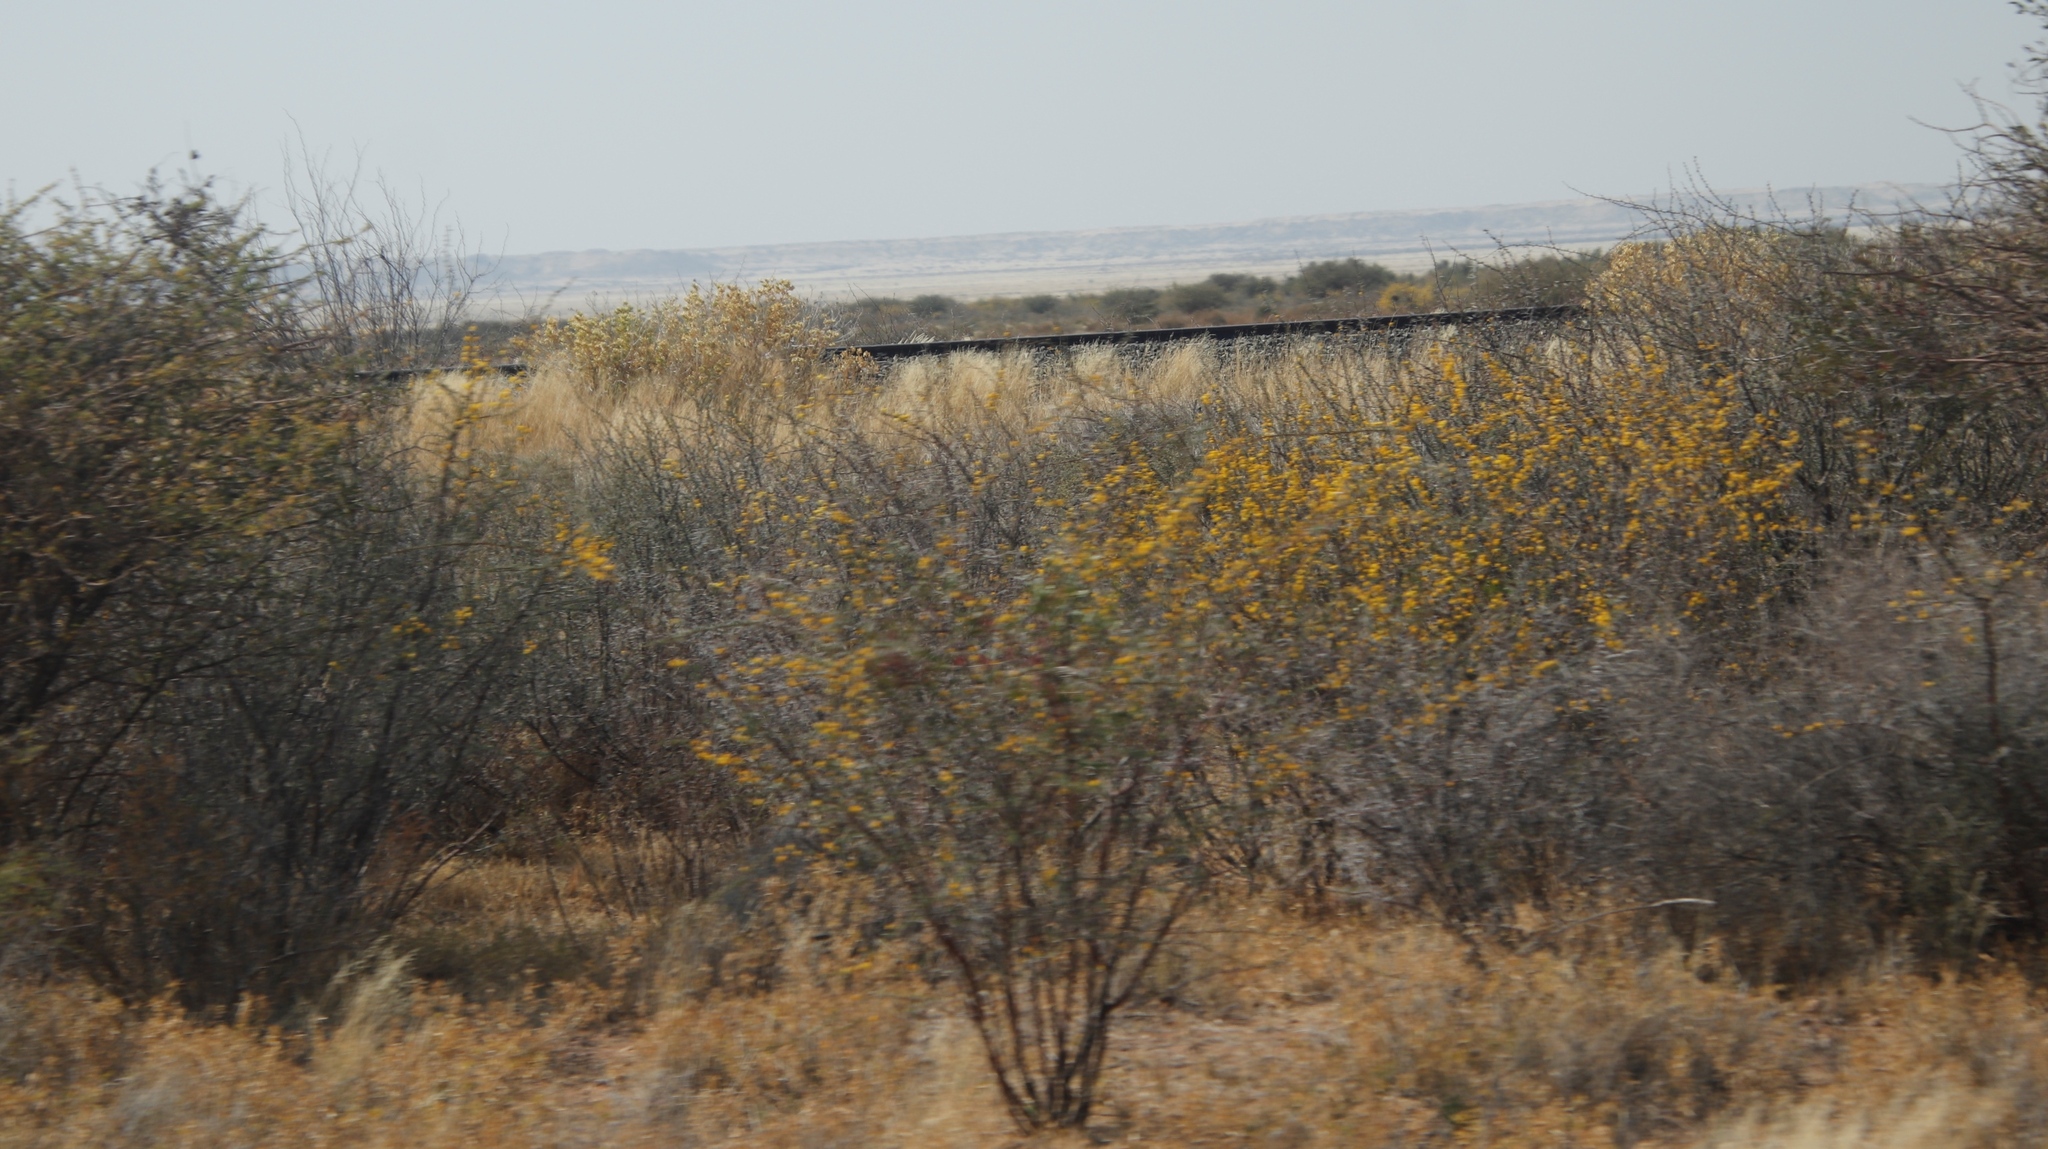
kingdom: Plantae
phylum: Tracheophyta
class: Magnoliopsida
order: Fabales
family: Fabaceae
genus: Vachellia
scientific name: Vachellia nebrownii
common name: Water acacia
